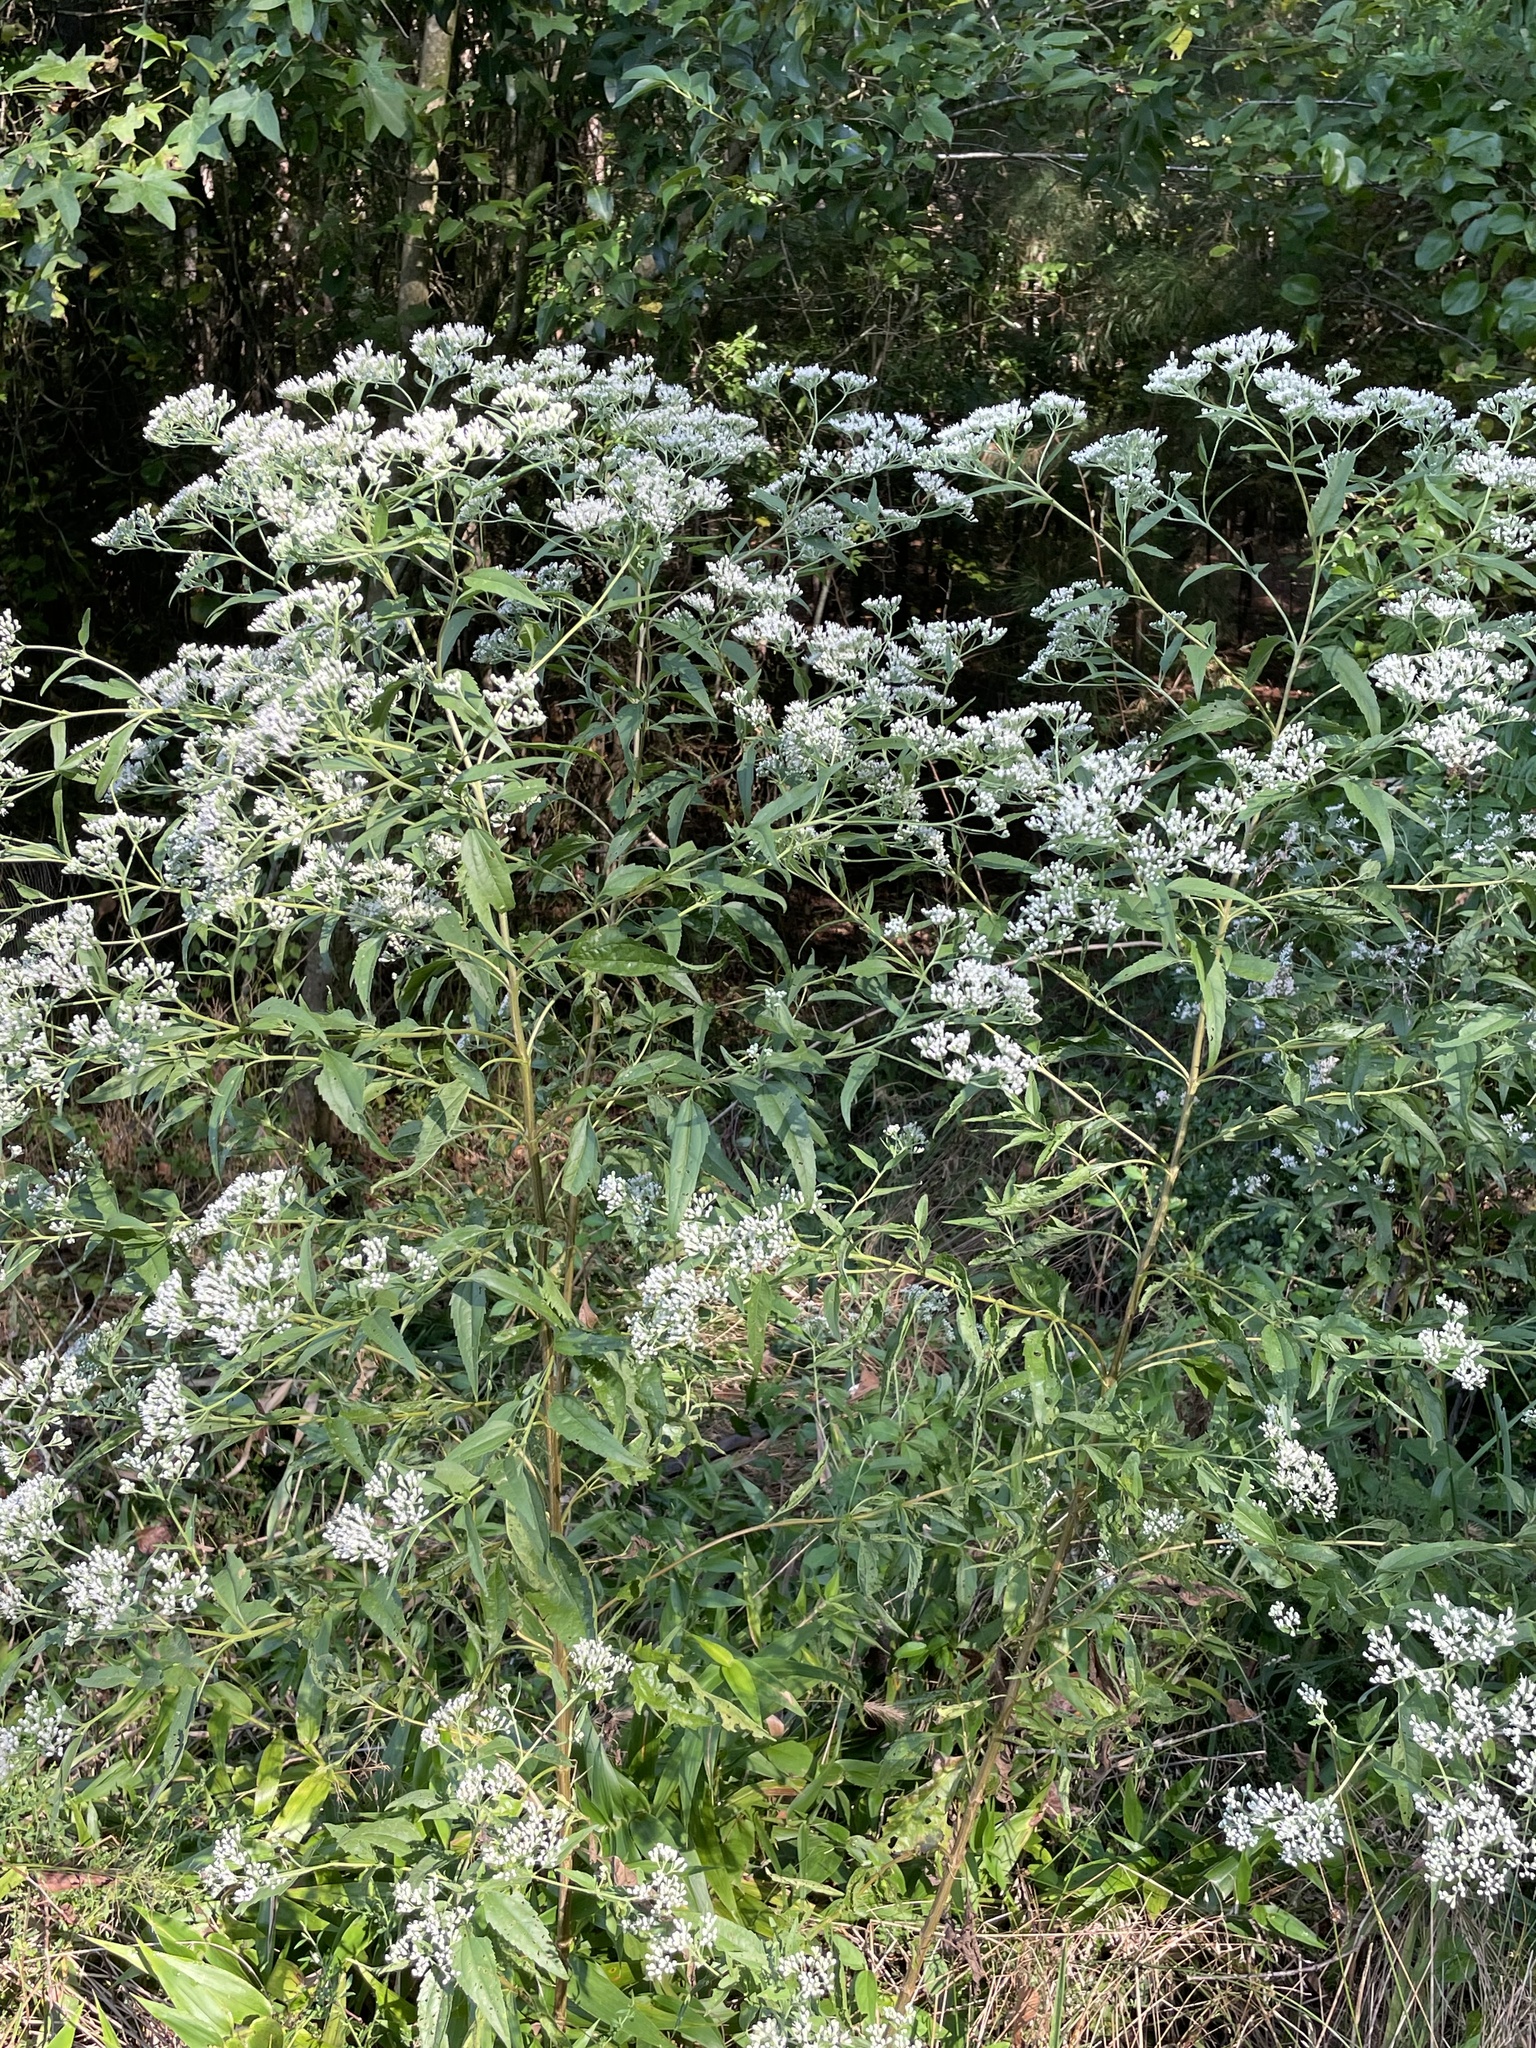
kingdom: Plantae
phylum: Tracheophyta
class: Magnoliopsida
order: Asterales
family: Asteraceae
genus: Eupatorium
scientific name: Eupatorium serotinum
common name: Late boneset
